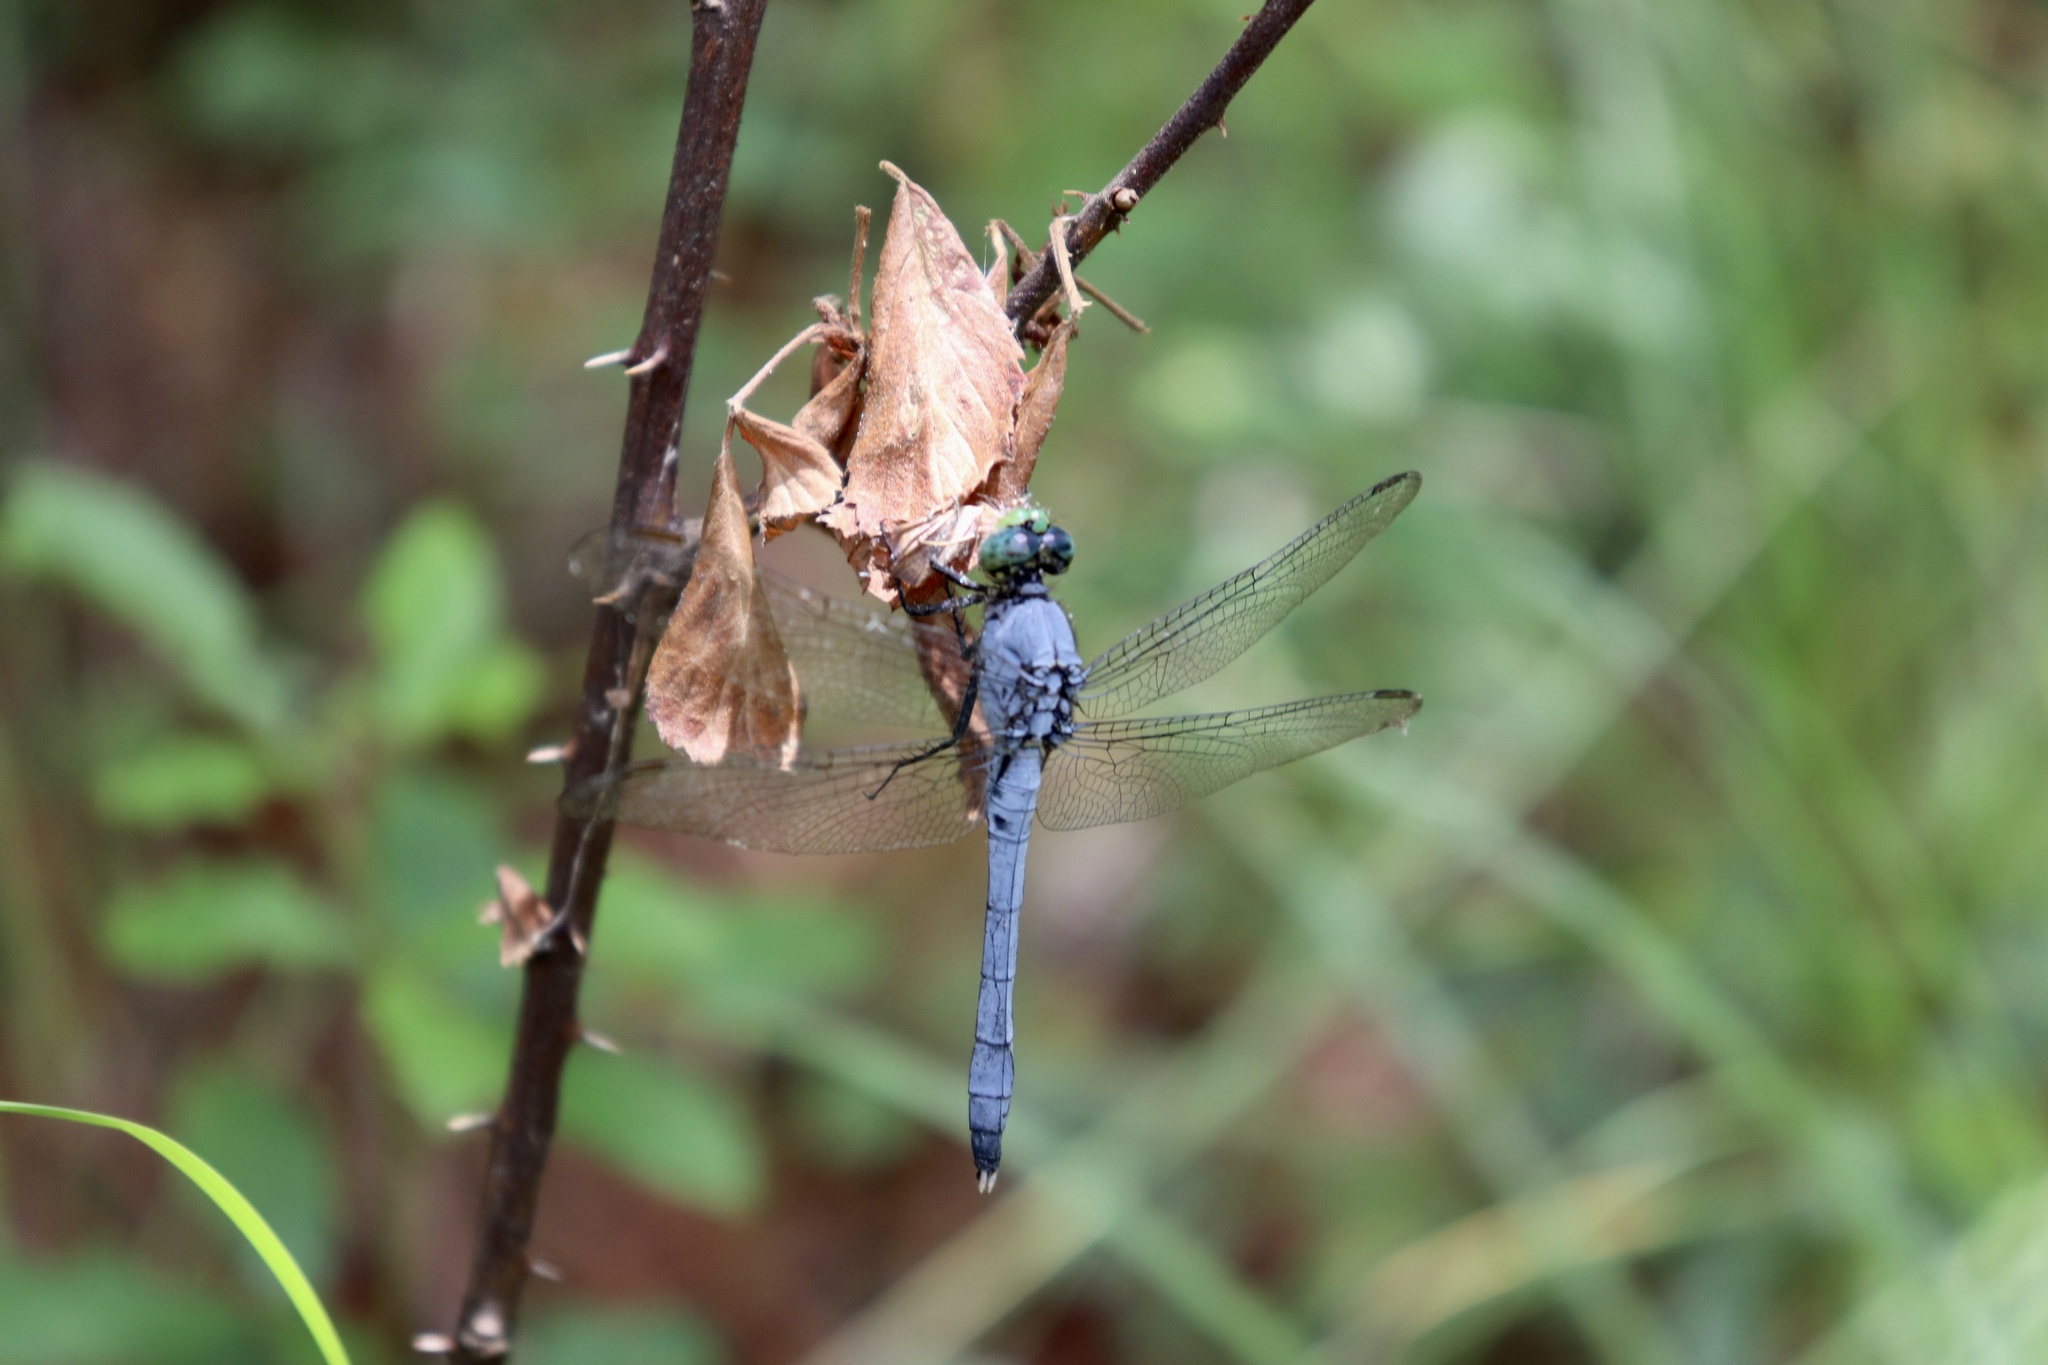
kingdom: Animalia
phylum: Arthropoda
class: Insecta
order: Odonata
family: Libellulidae
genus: Erythemis
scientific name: Erythemis simplicicollis
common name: Eastern pondhawk
